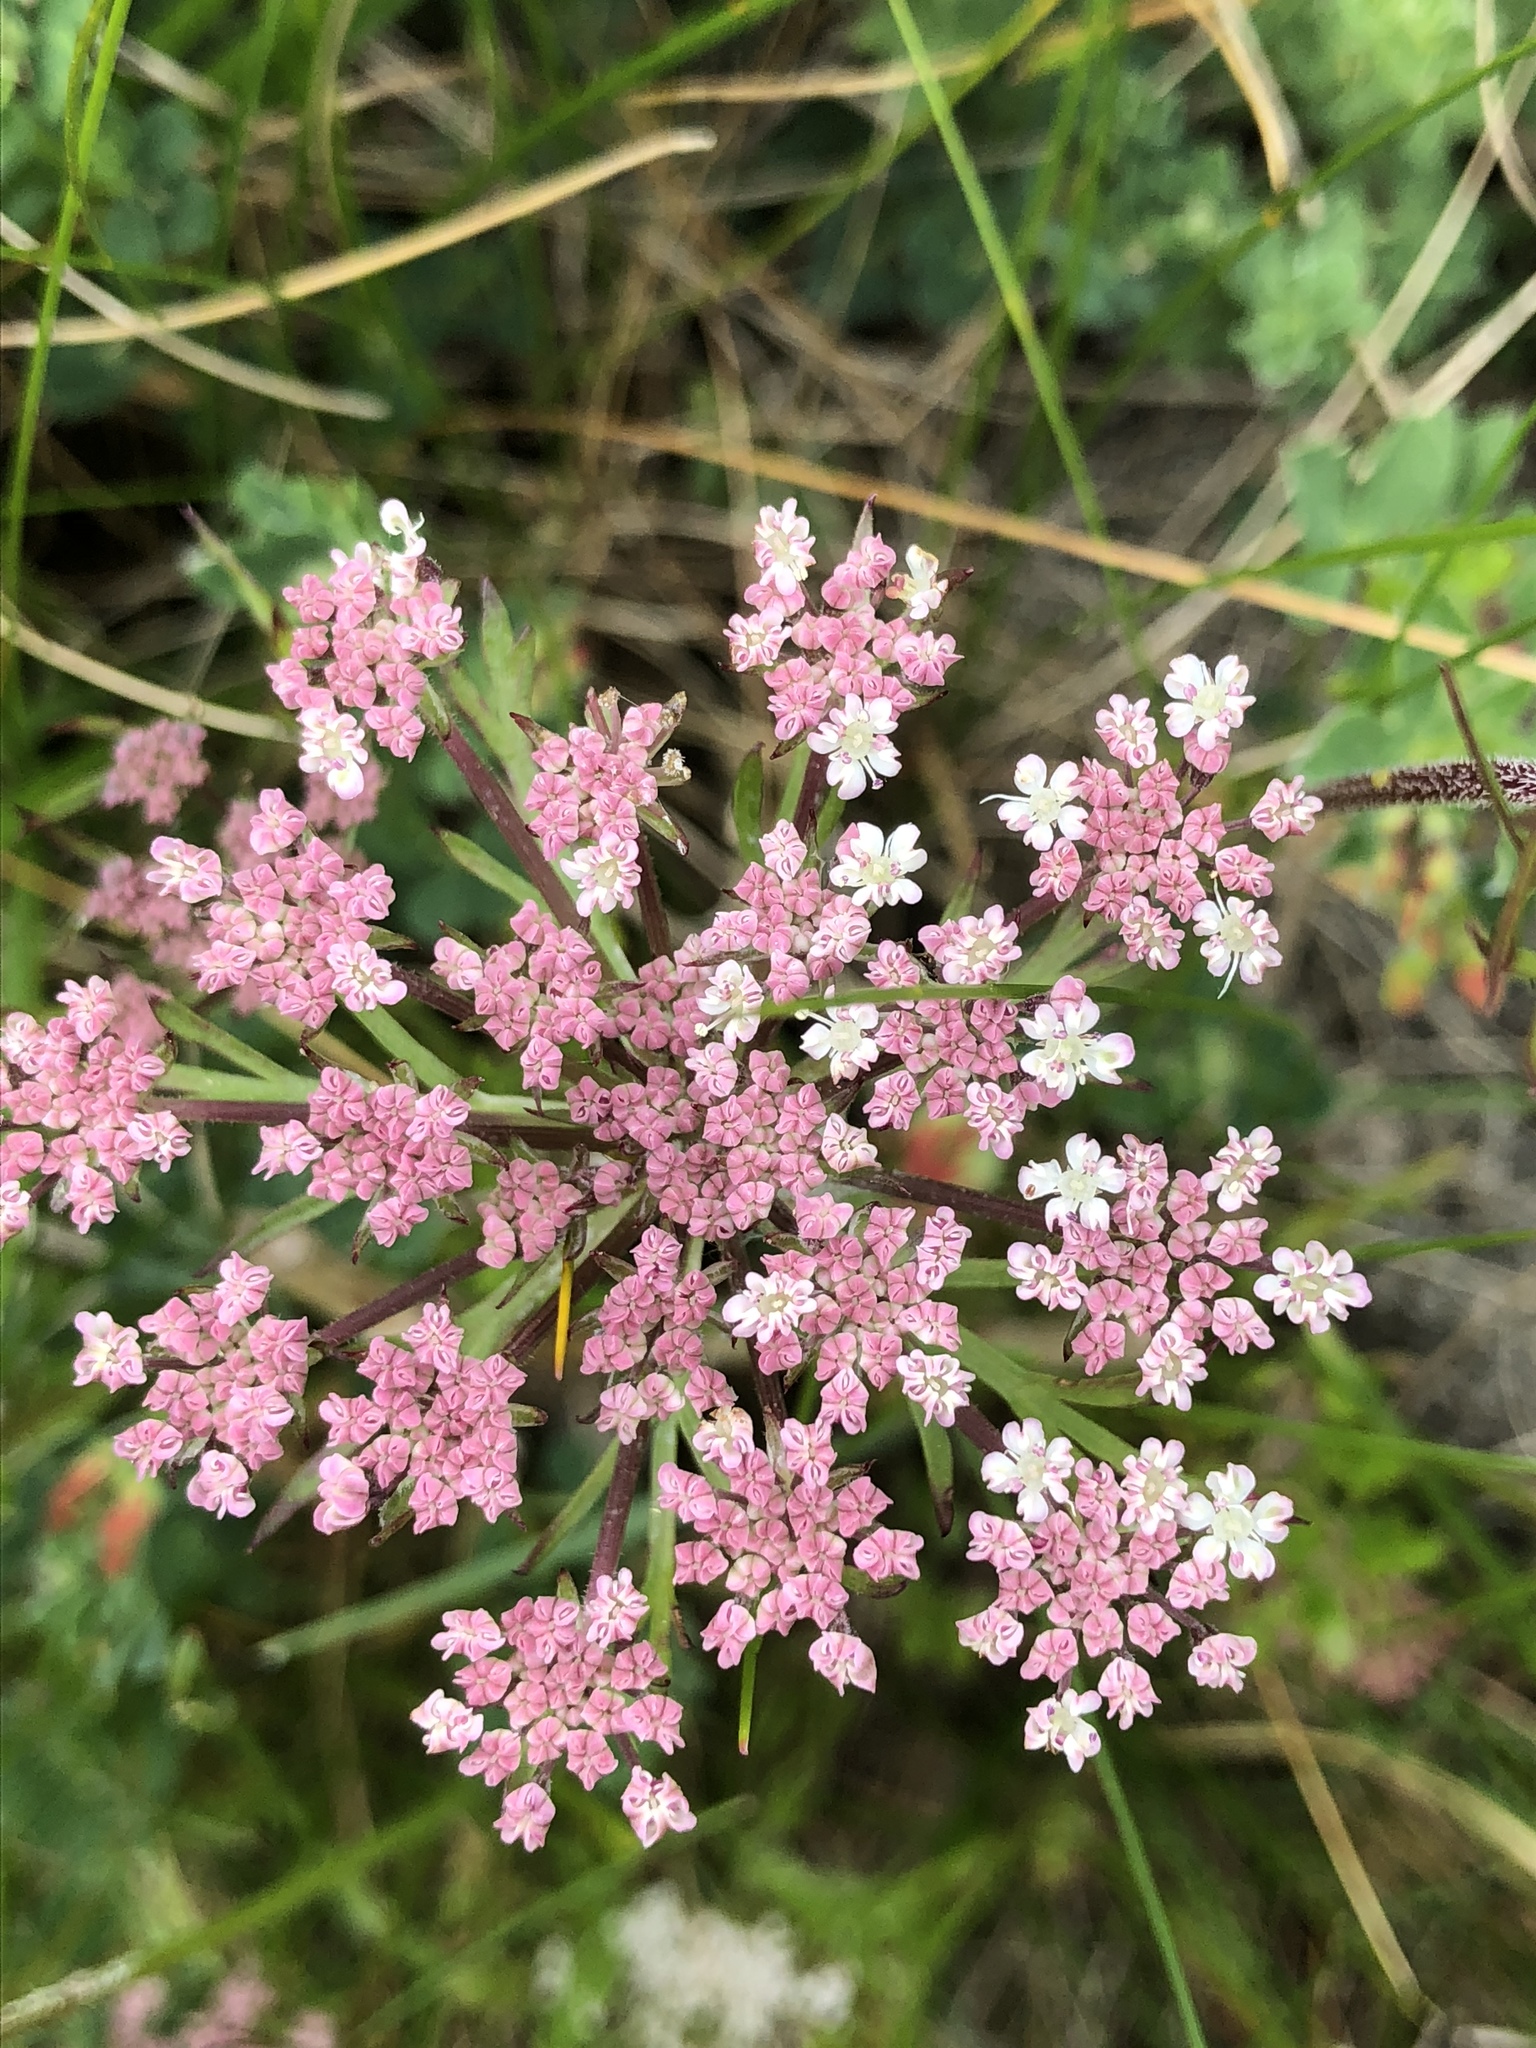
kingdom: Plantae
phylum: Tracheophyta
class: Magnoliopsida
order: Apiales
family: Apiaceae
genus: Daucus
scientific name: Daucus carota
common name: Wild carrot
